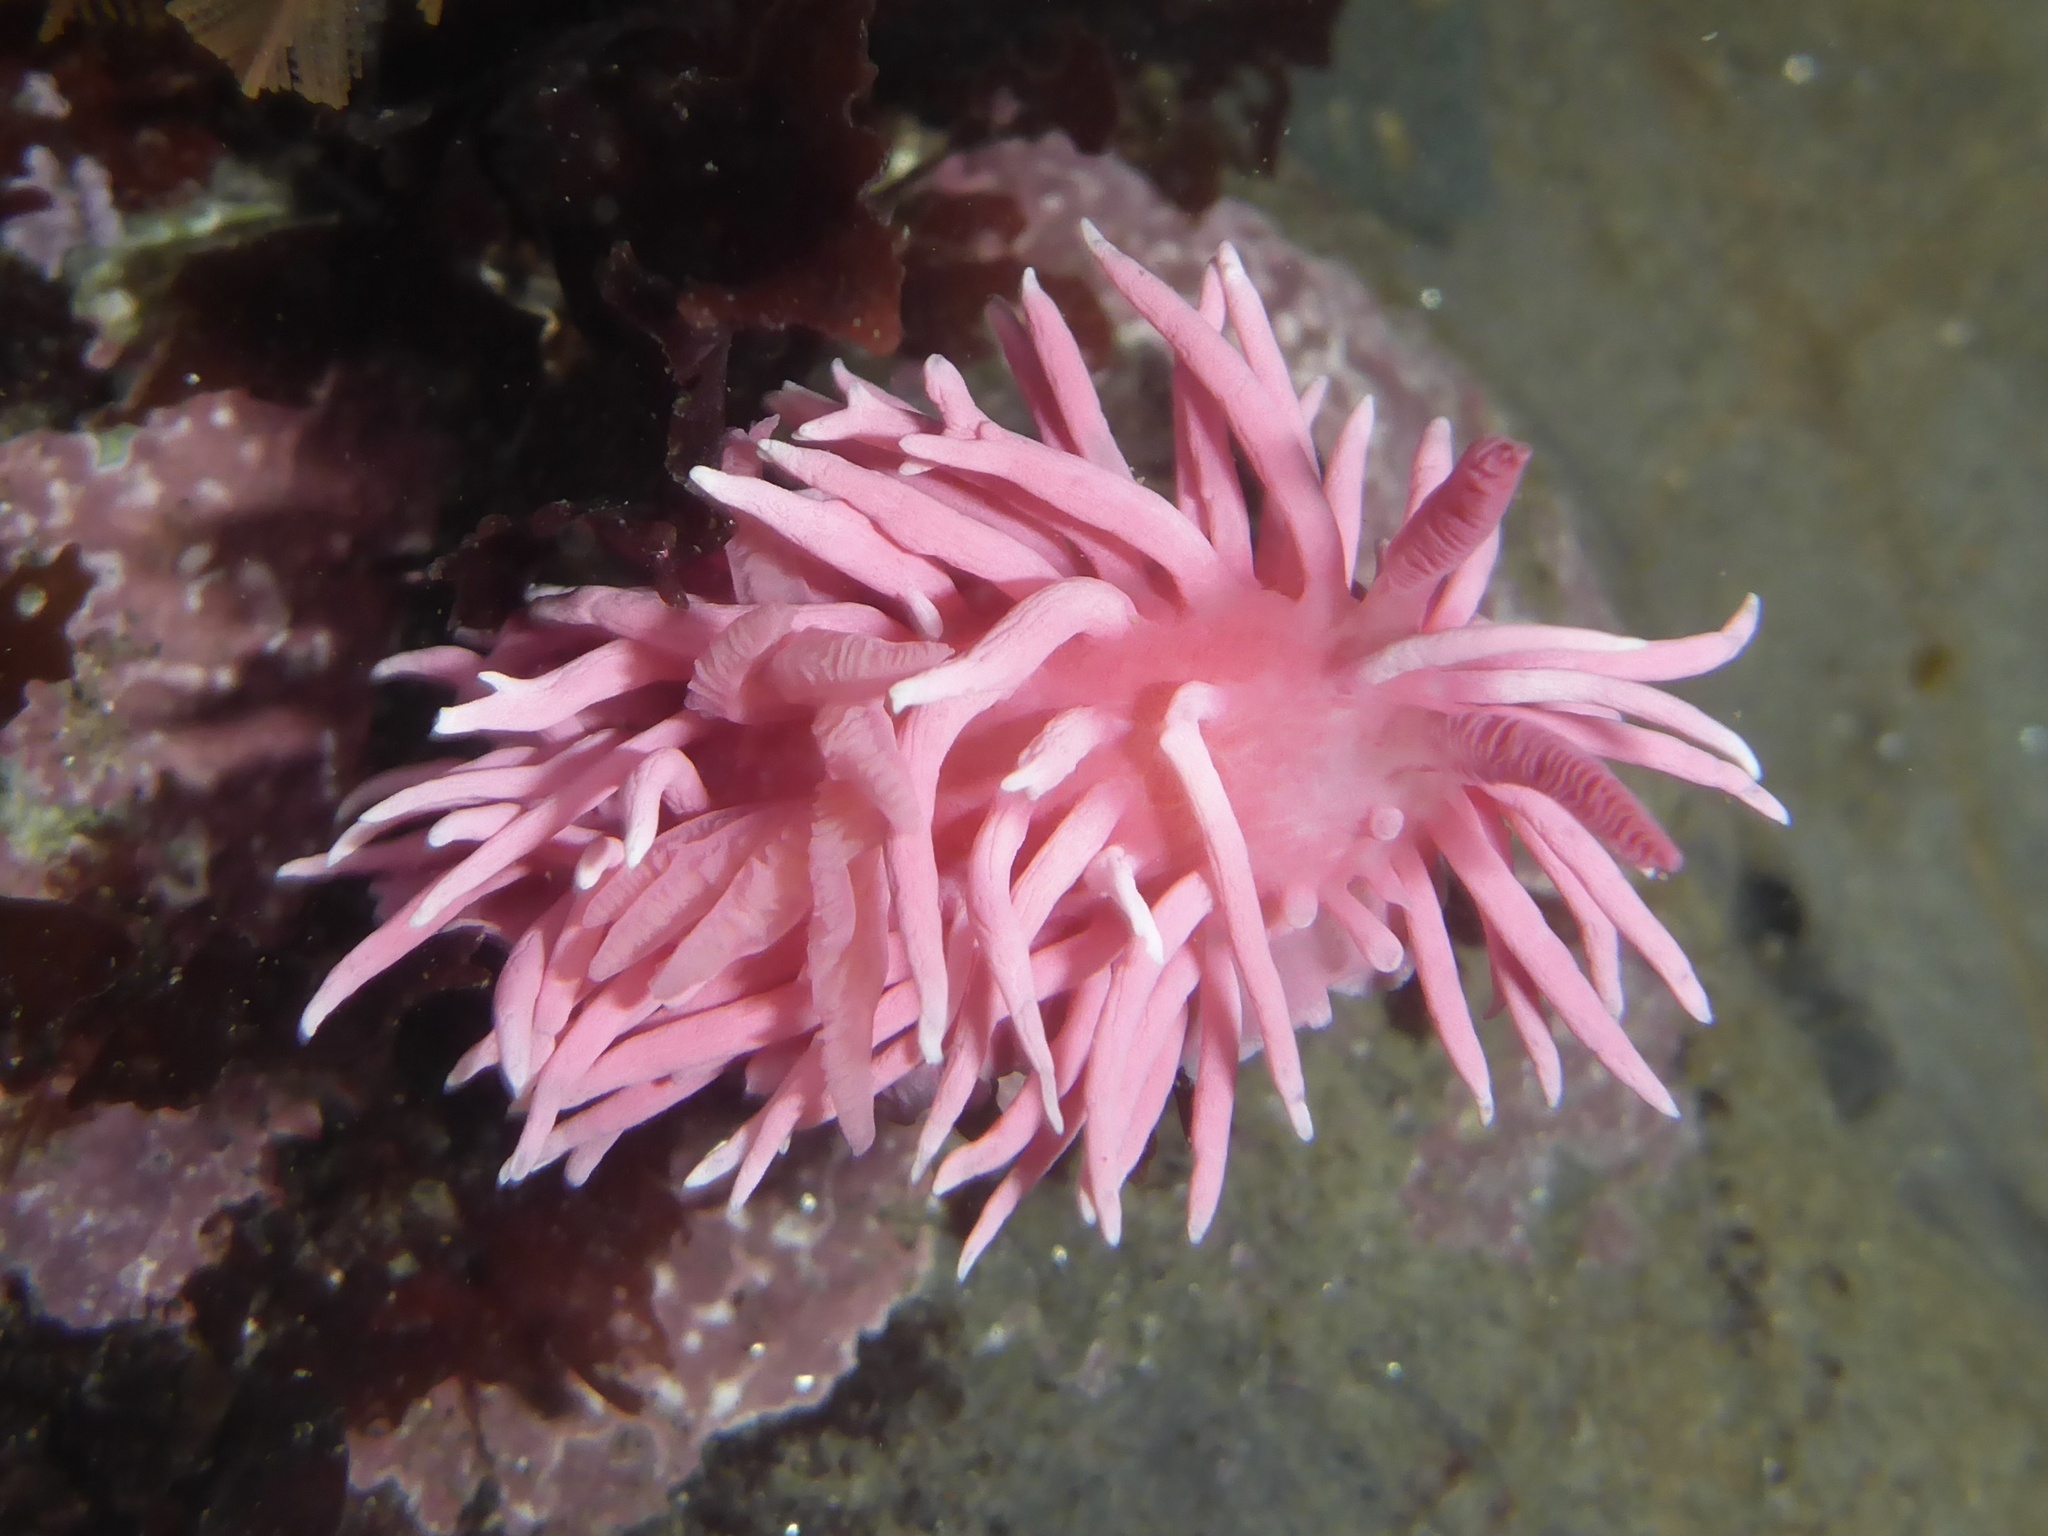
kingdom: Animalia
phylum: Mollusca
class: Gastropoda
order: Nudibranchia
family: Goniodorididae
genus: Okenia
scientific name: Okenia
